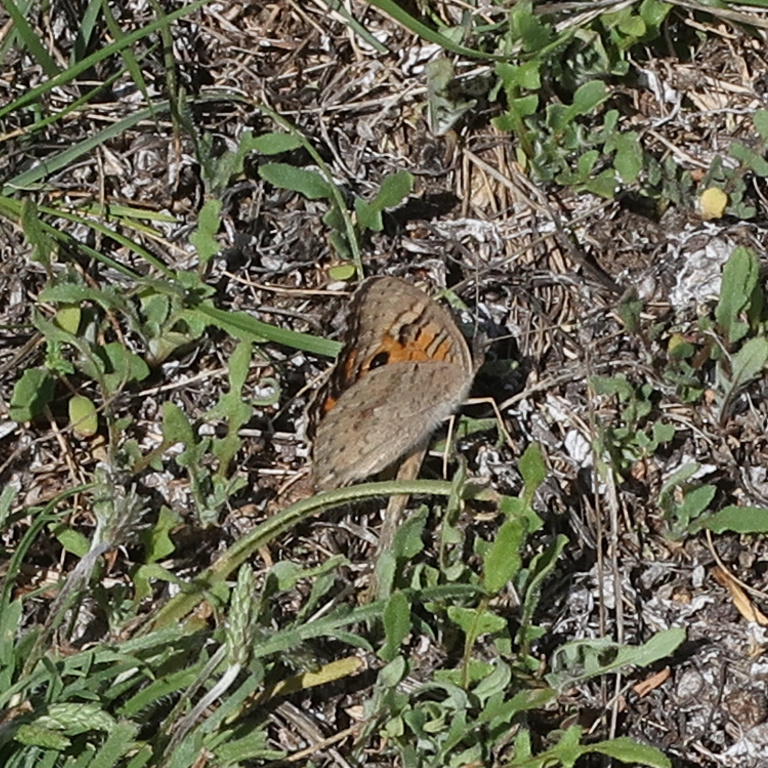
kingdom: Animalia
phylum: Arthropoda
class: Insecta
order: Lepidoptera
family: Nymphalidae
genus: Junonia
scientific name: Junonia villida
